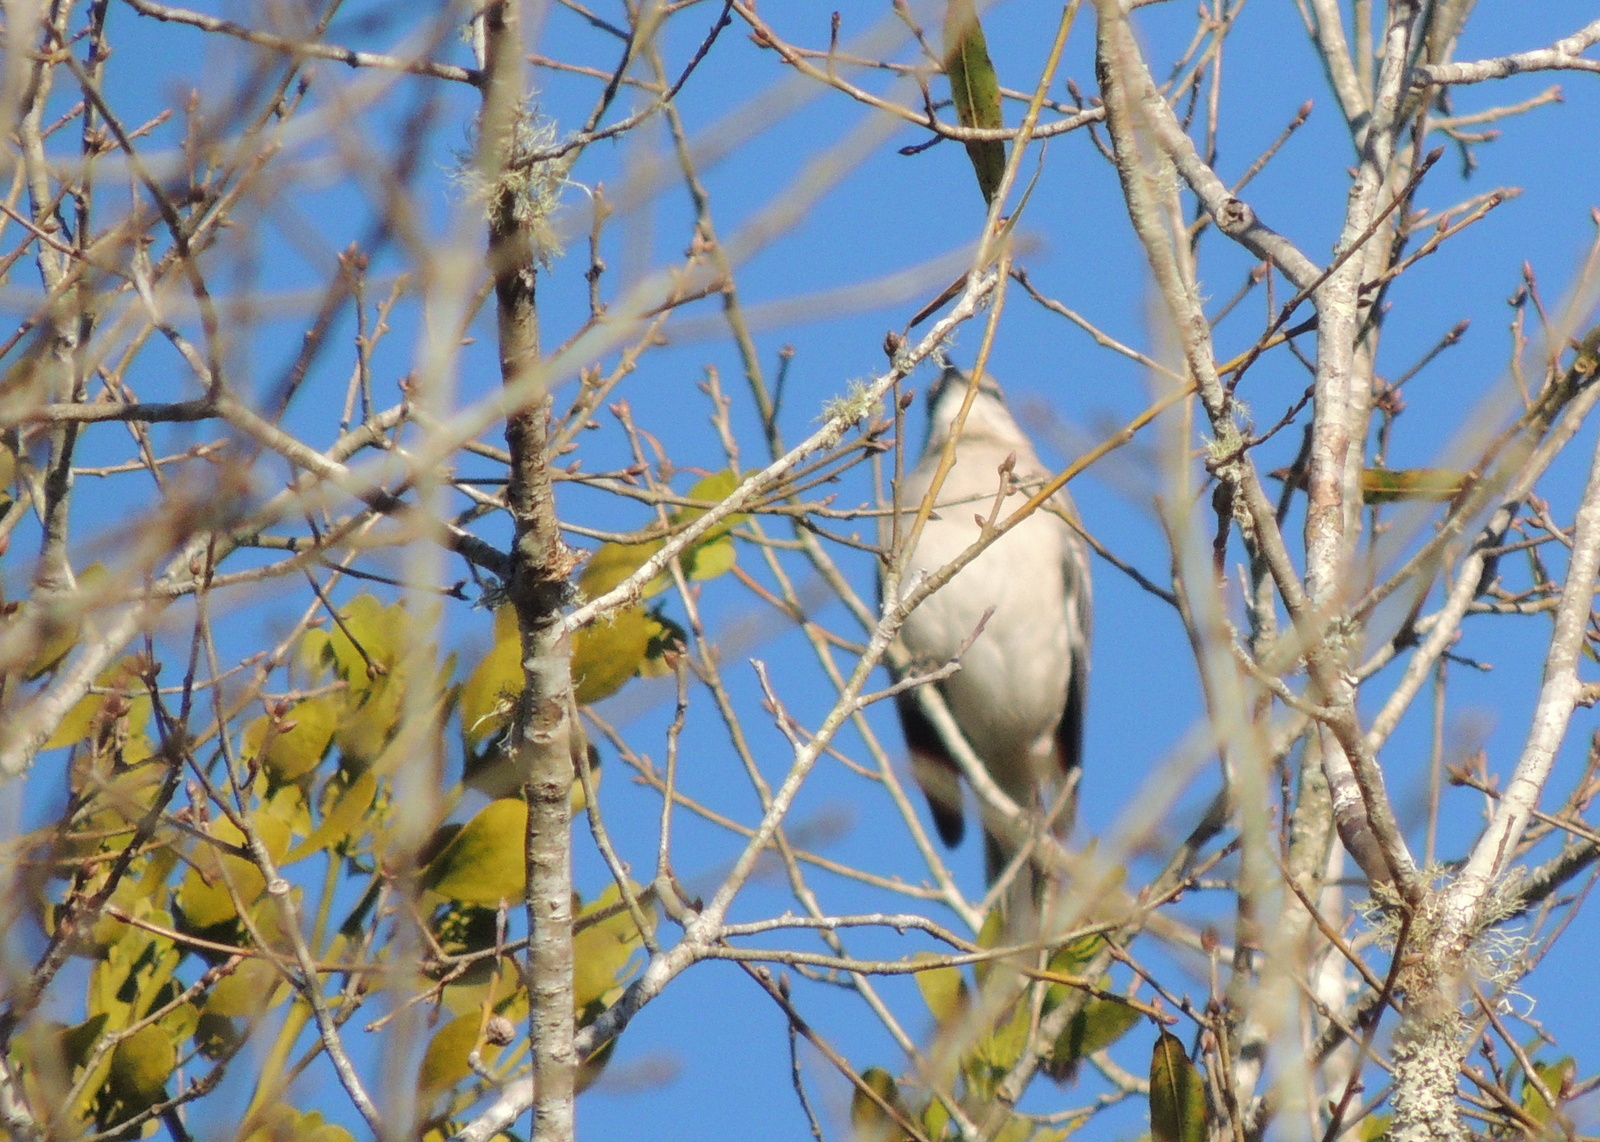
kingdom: Animalia
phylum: Chordata
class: Aves
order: Passeriformes
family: Mimidae
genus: Mimus
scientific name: Mimus polyglottos
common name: Northern mockingbird
